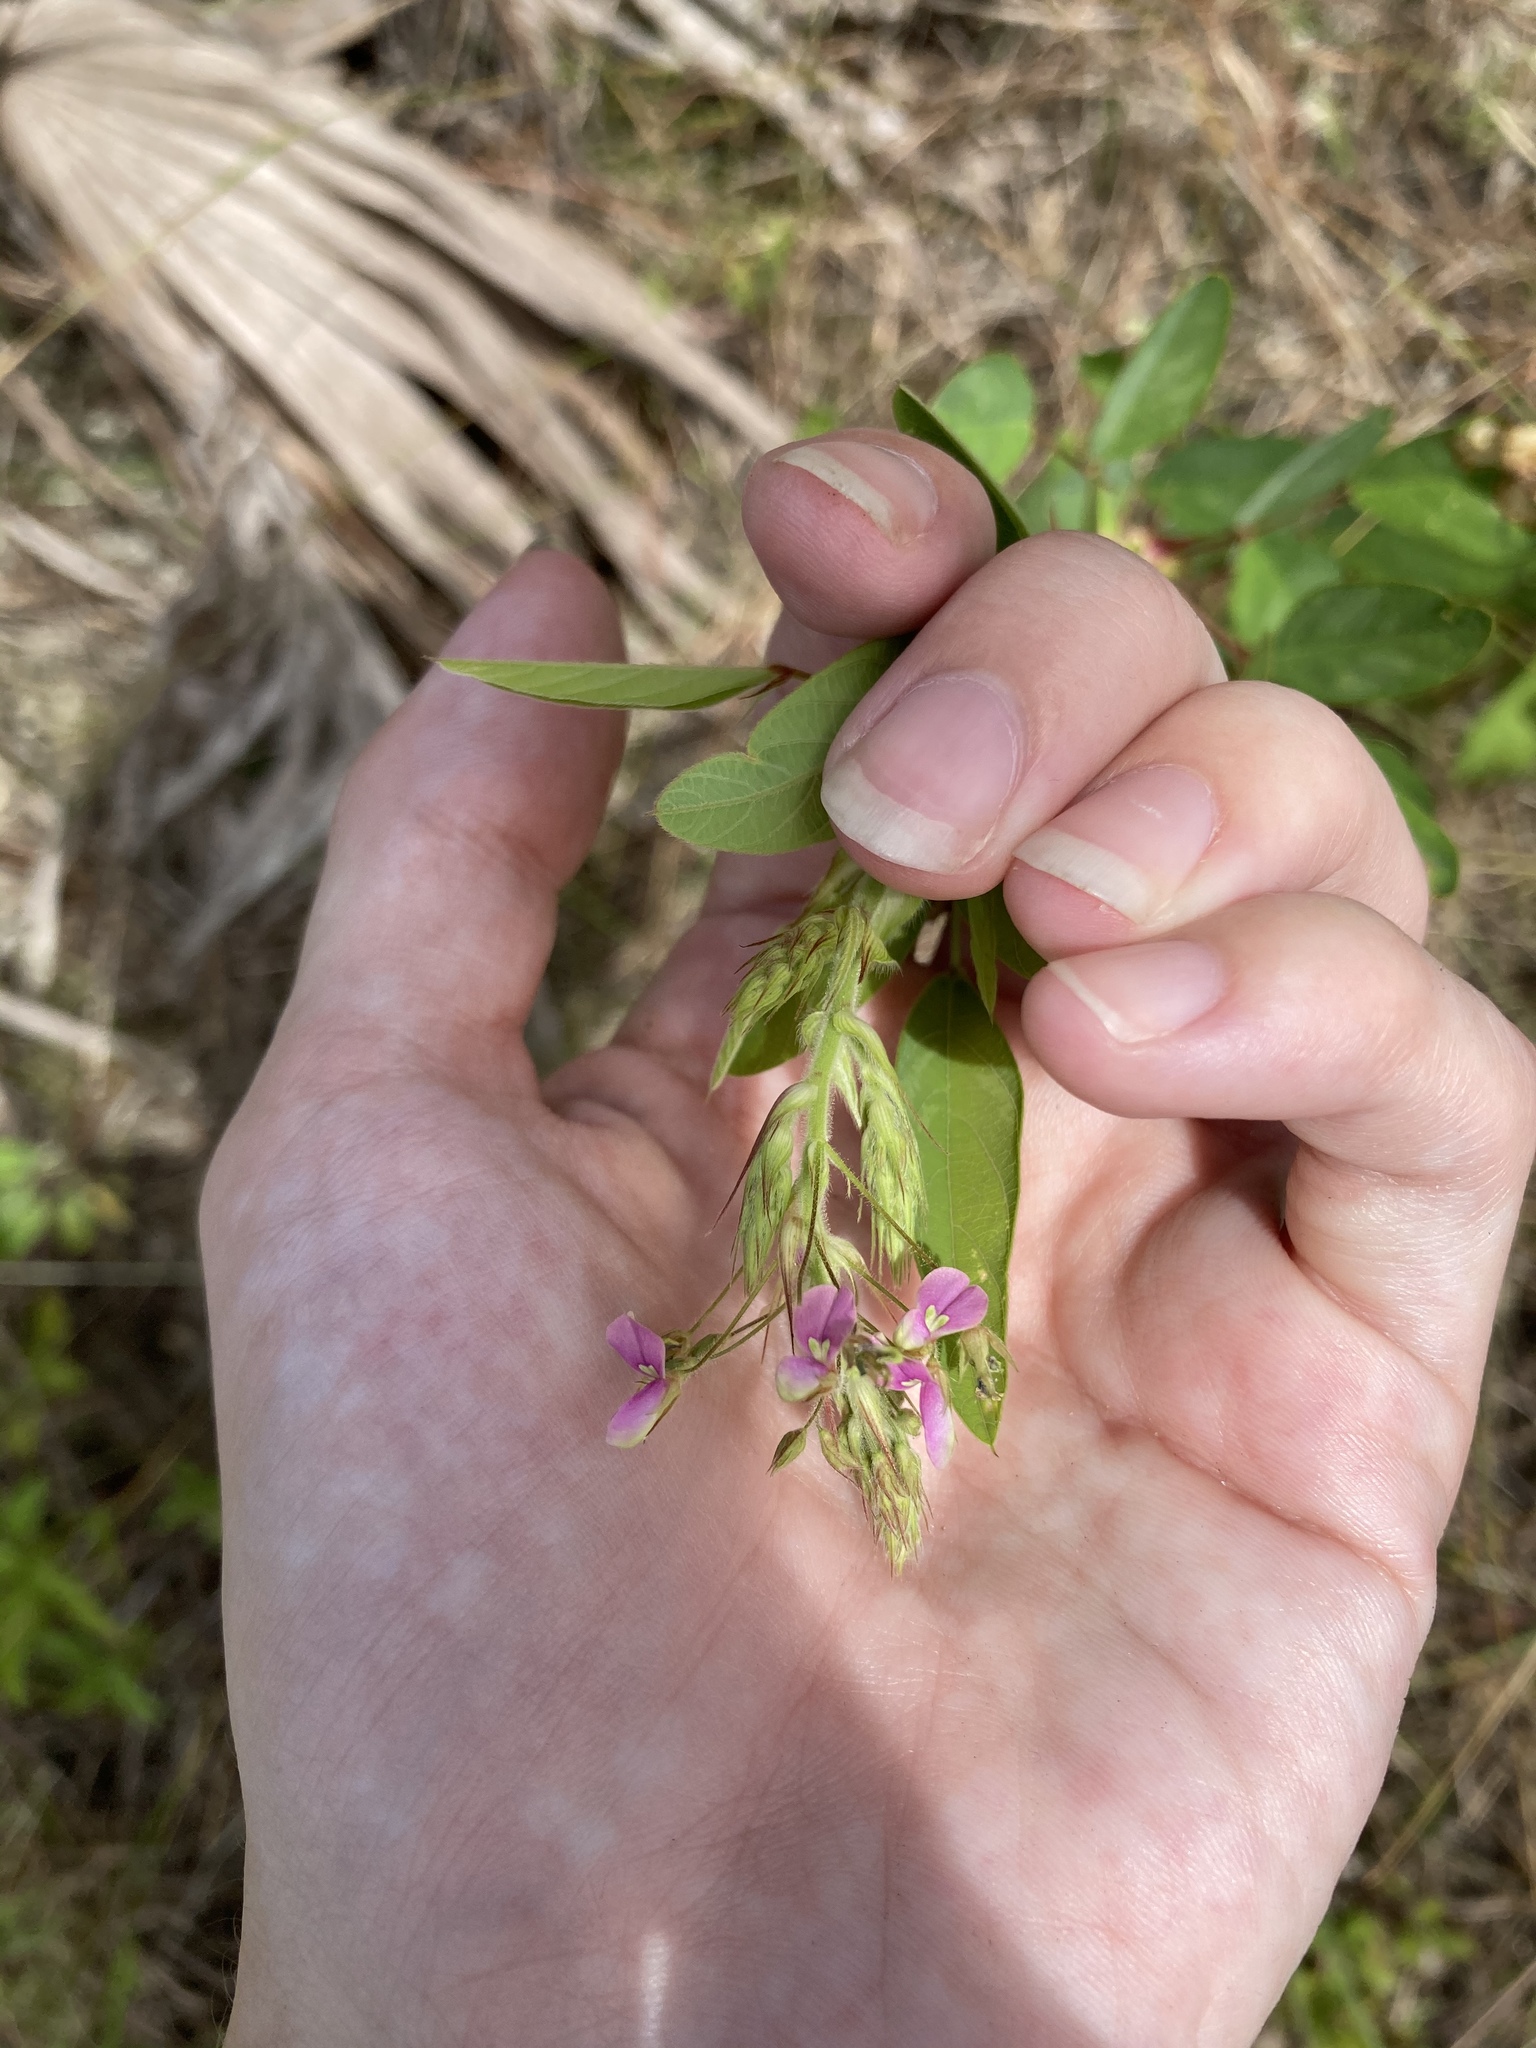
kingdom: Plantae
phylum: Tracheophyta
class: Magnoliopsida
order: Fabales
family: Fabaceae
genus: Desmodium
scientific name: Desmodium tortuosum
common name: Dixie ticktrefoil
